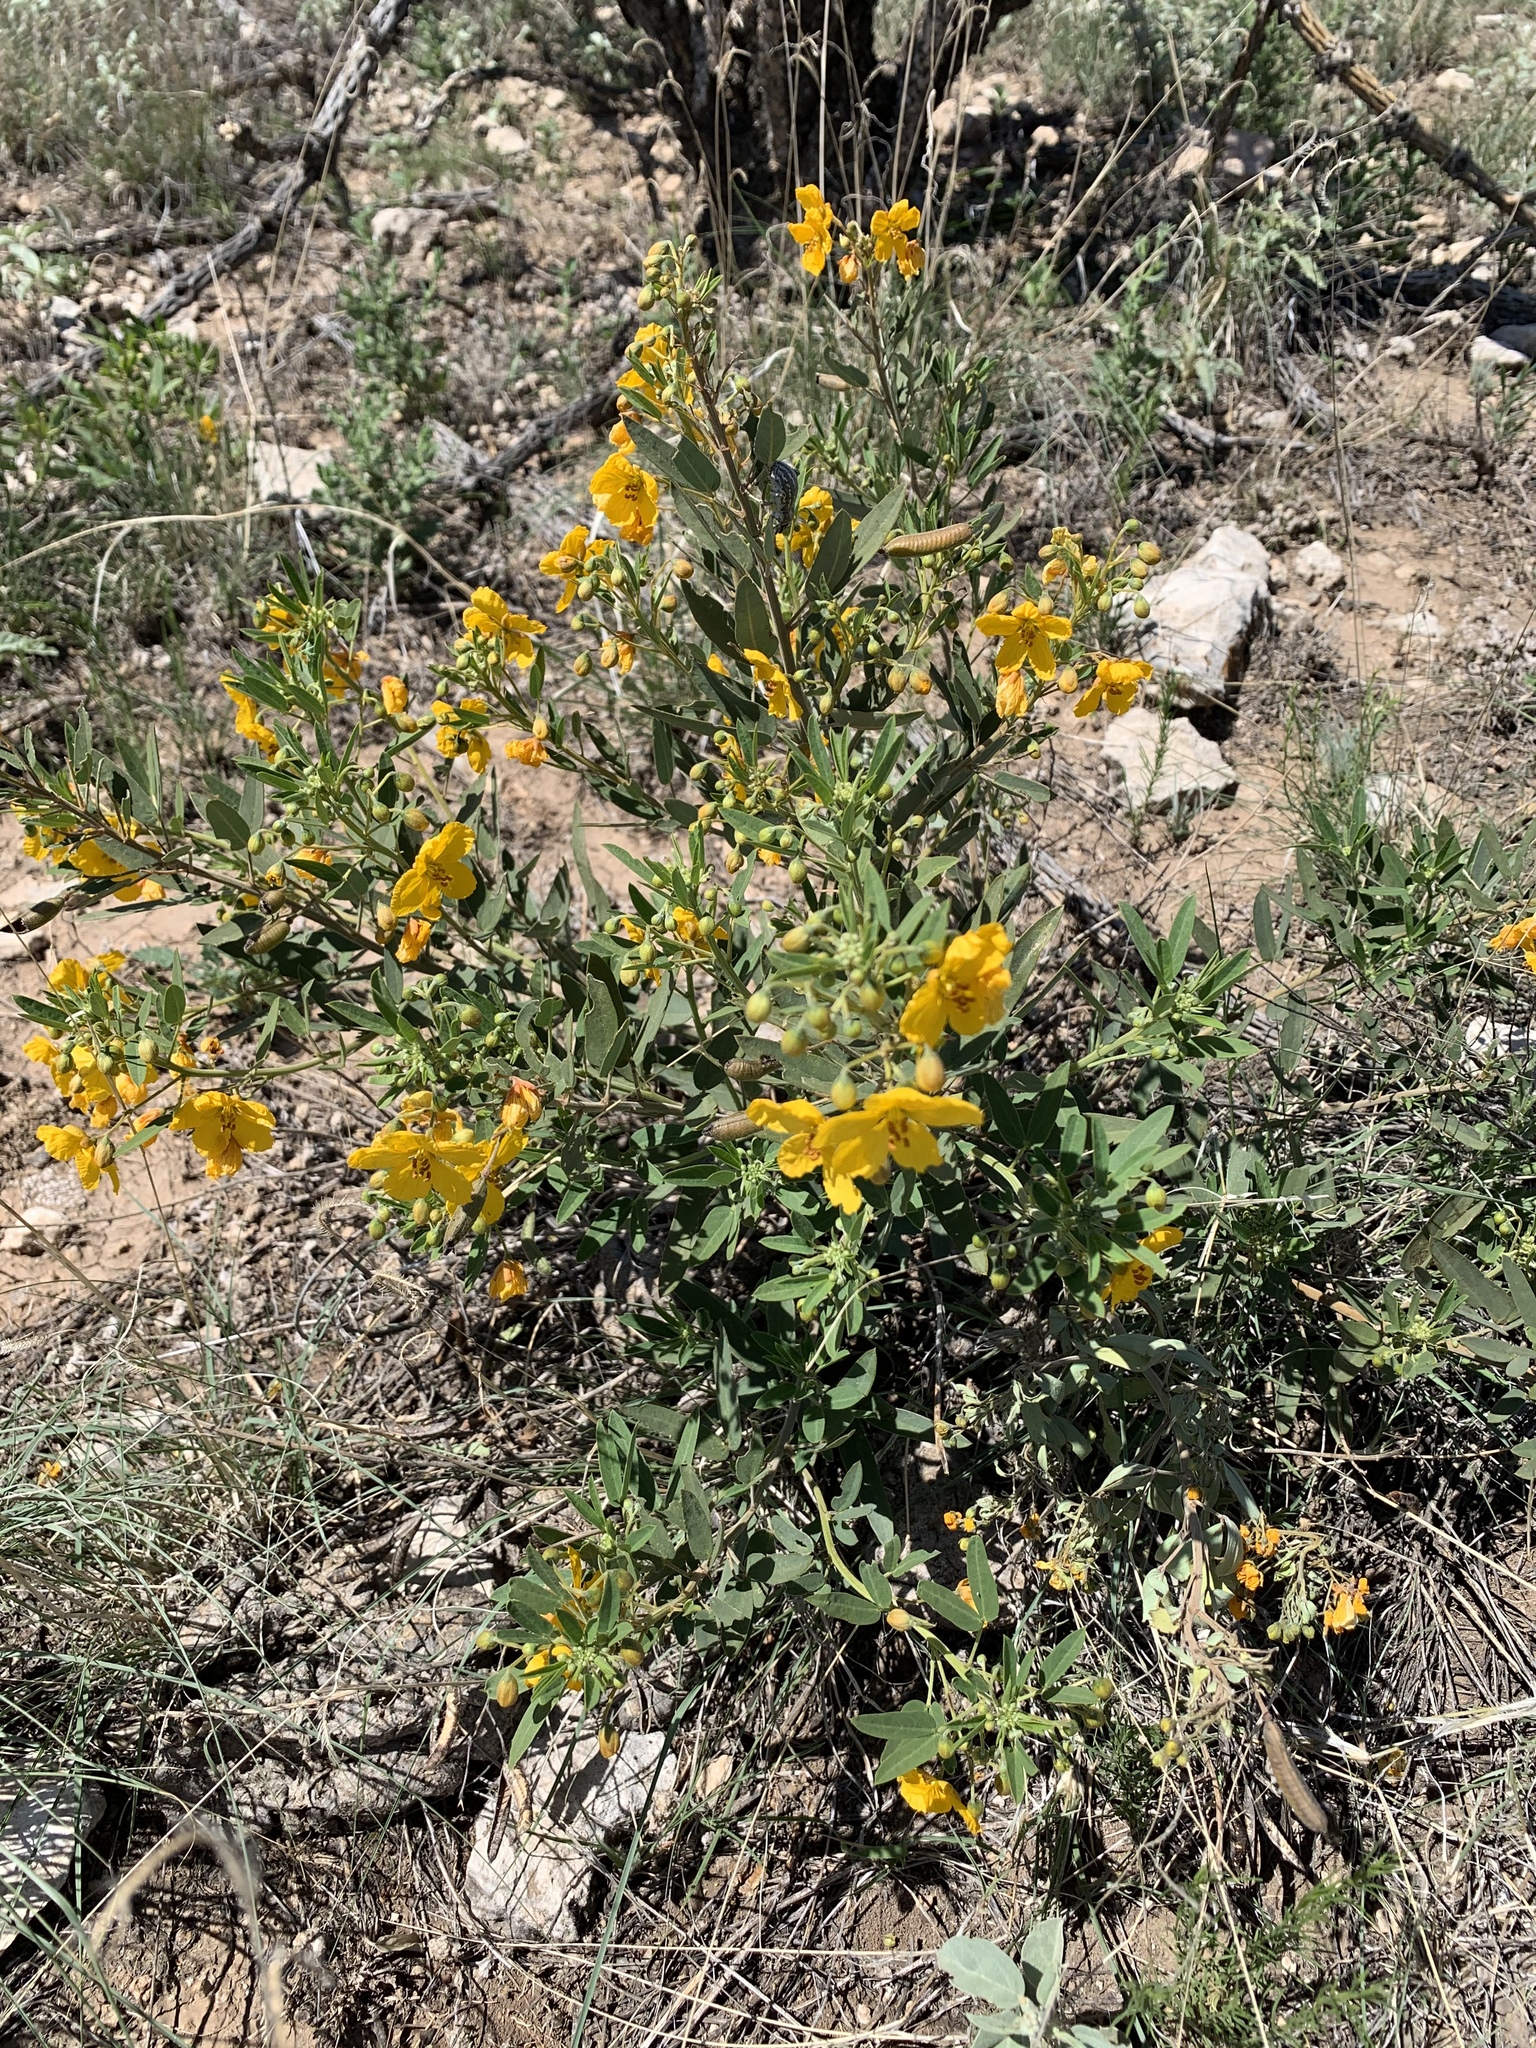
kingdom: Plantae
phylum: Tracheophyta
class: Magnoliopsida
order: Fabales
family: Fabaceae
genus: Senna
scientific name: Senna roemeriana
